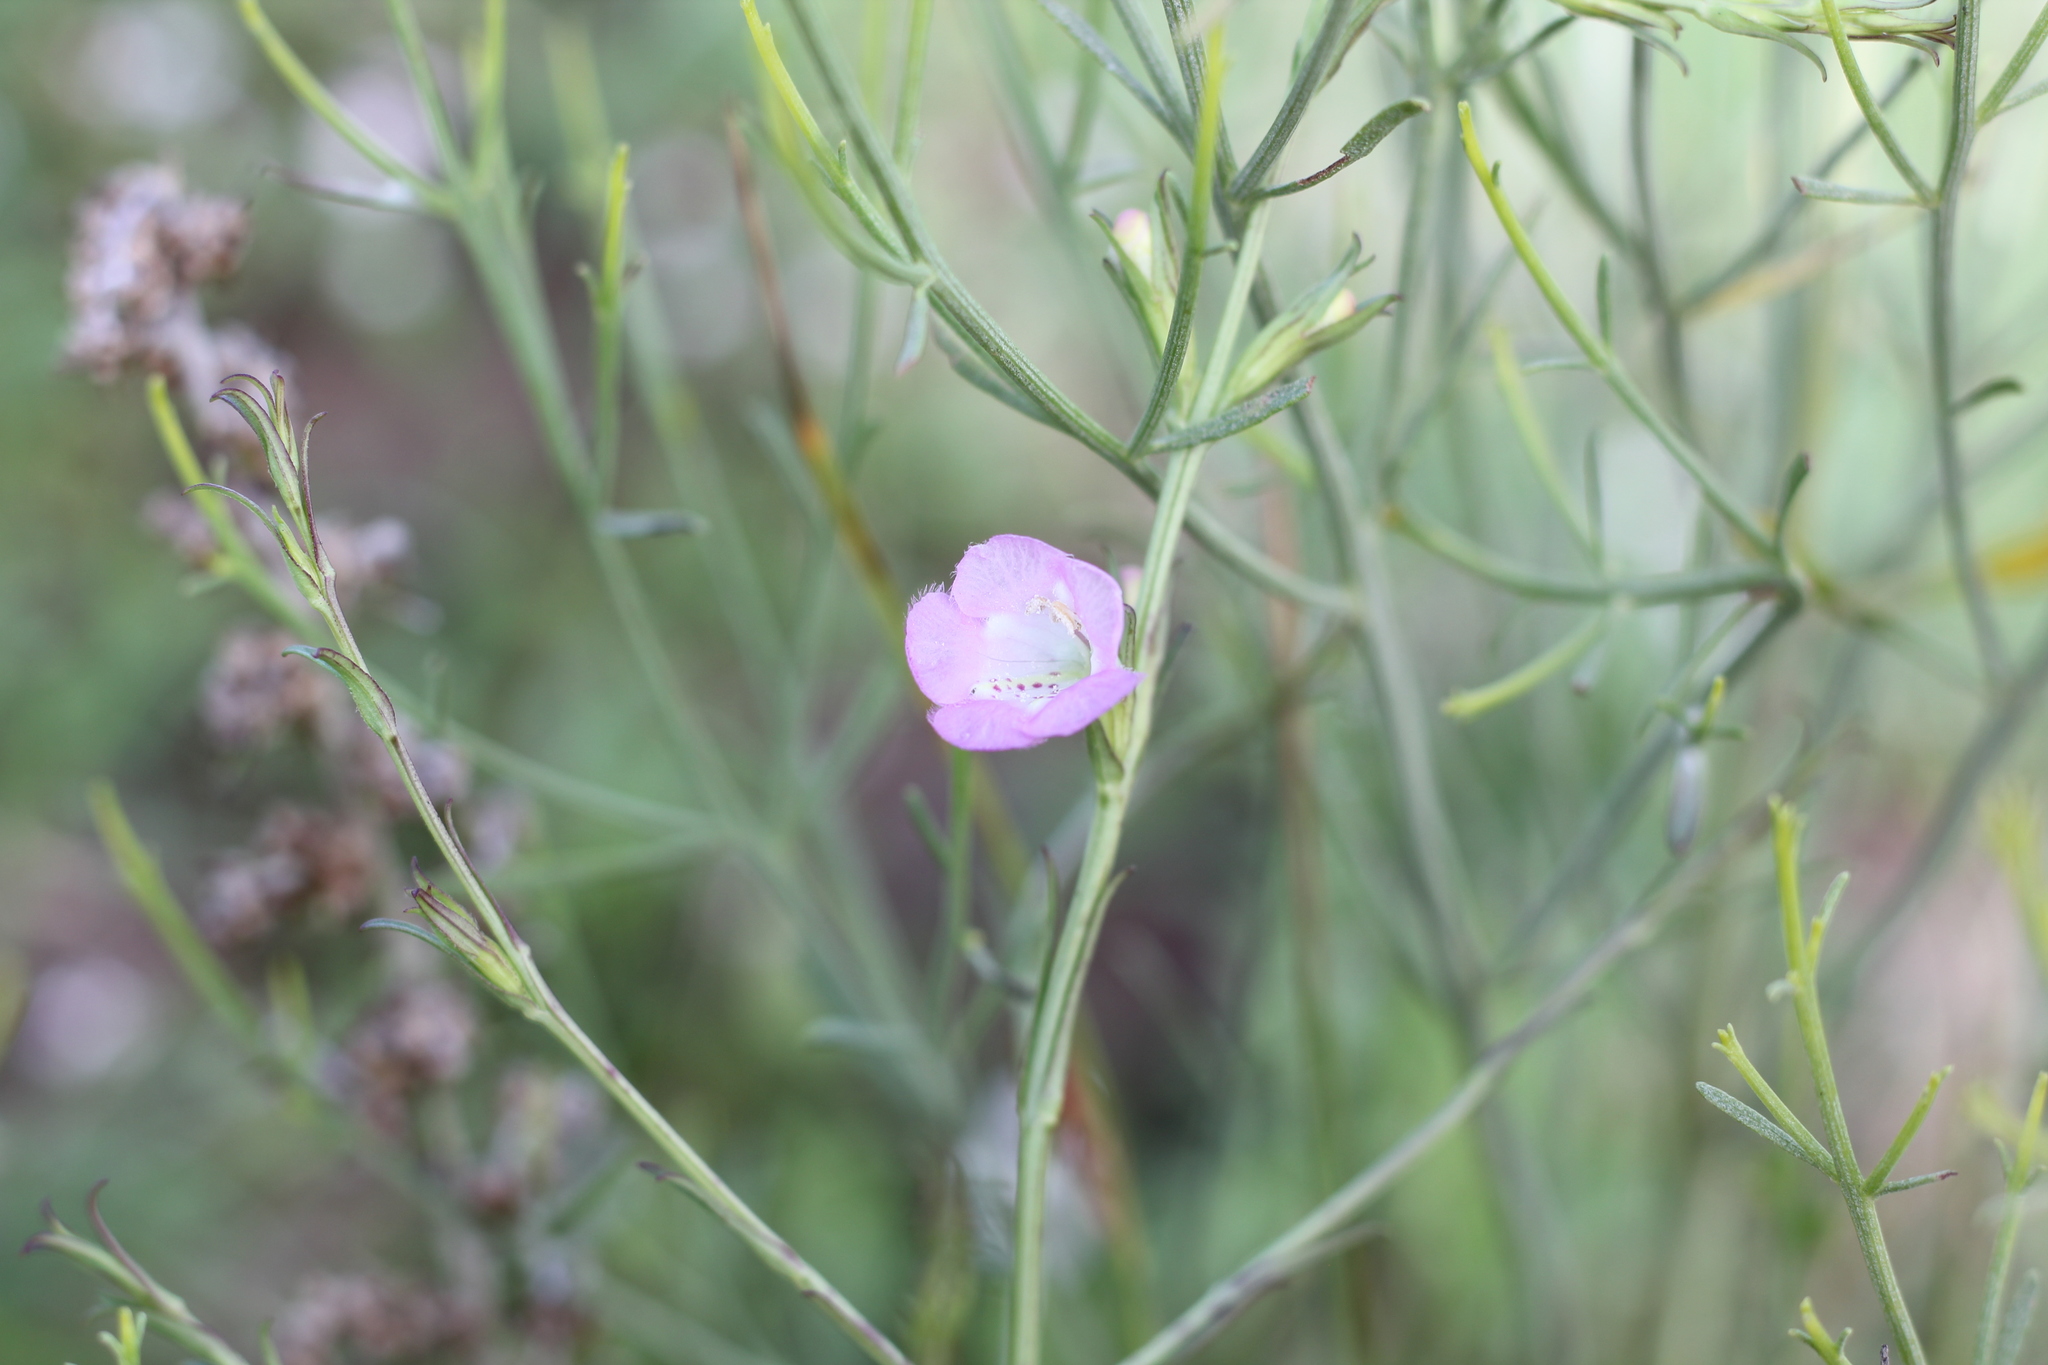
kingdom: Plantae
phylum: Tracheophyta
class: Magnoliopsida
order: Lamiales
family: Orobanchaceae
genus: Agalinis
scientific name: Agalinis communis
